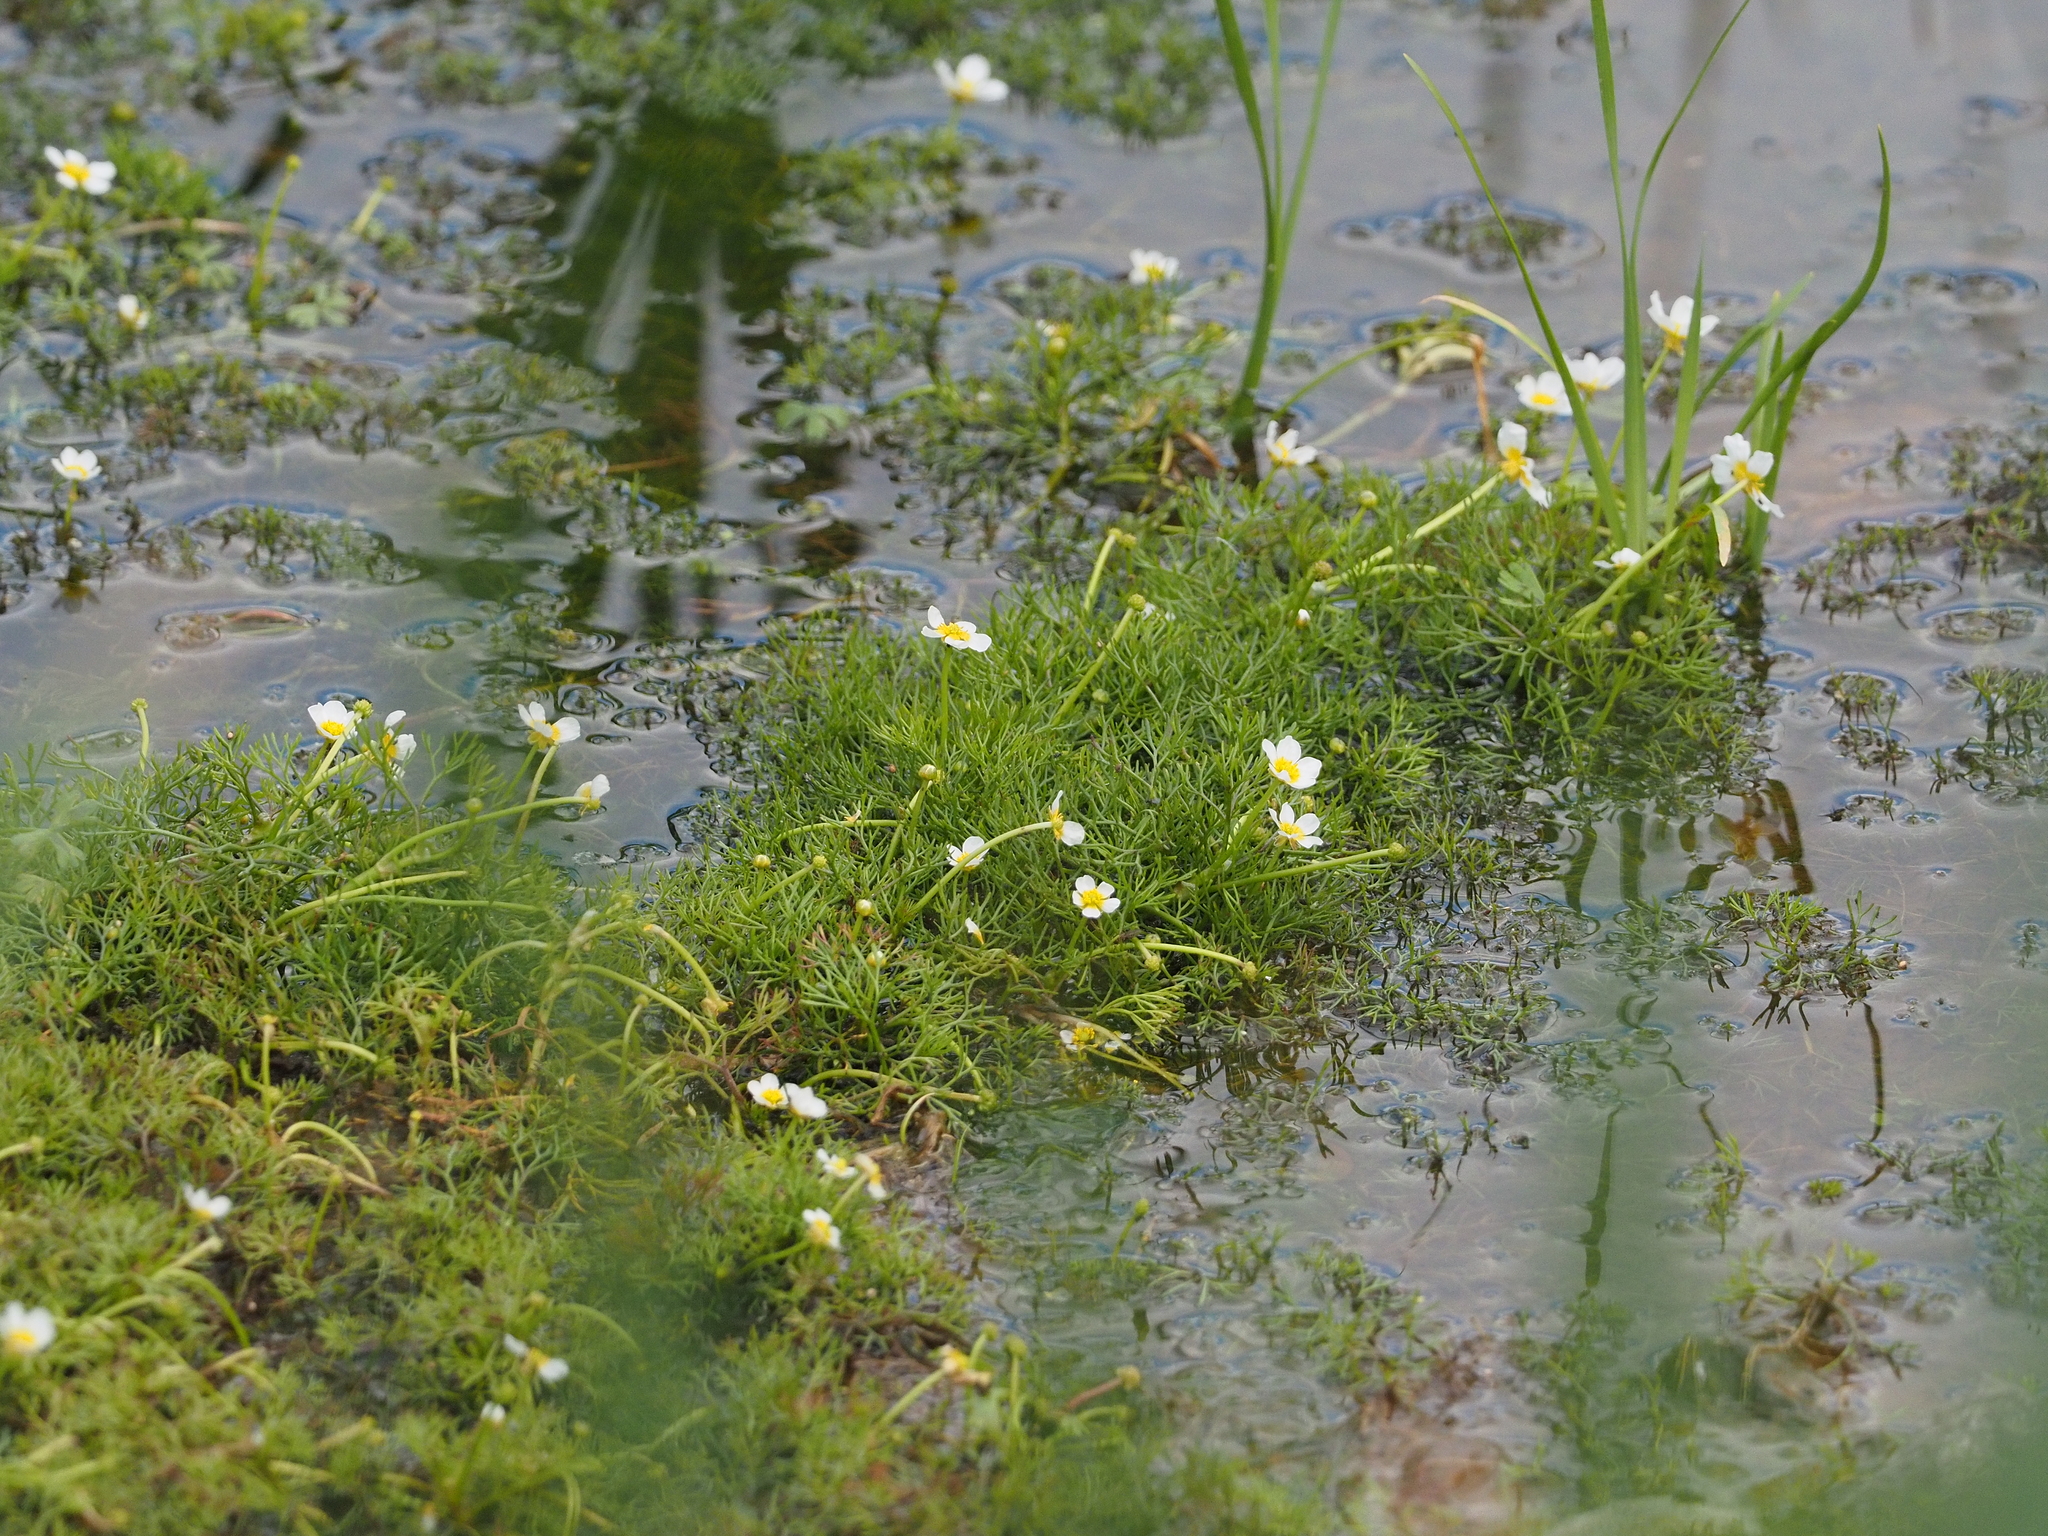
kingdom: Plantae
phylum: Tracheophyta
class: Magnoliopsida
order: Ranunculales
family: Ranunculaceae
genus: Ranunculus
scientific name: Ranunculus trichophyllus
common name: Thread-leaved water-crowfoot
